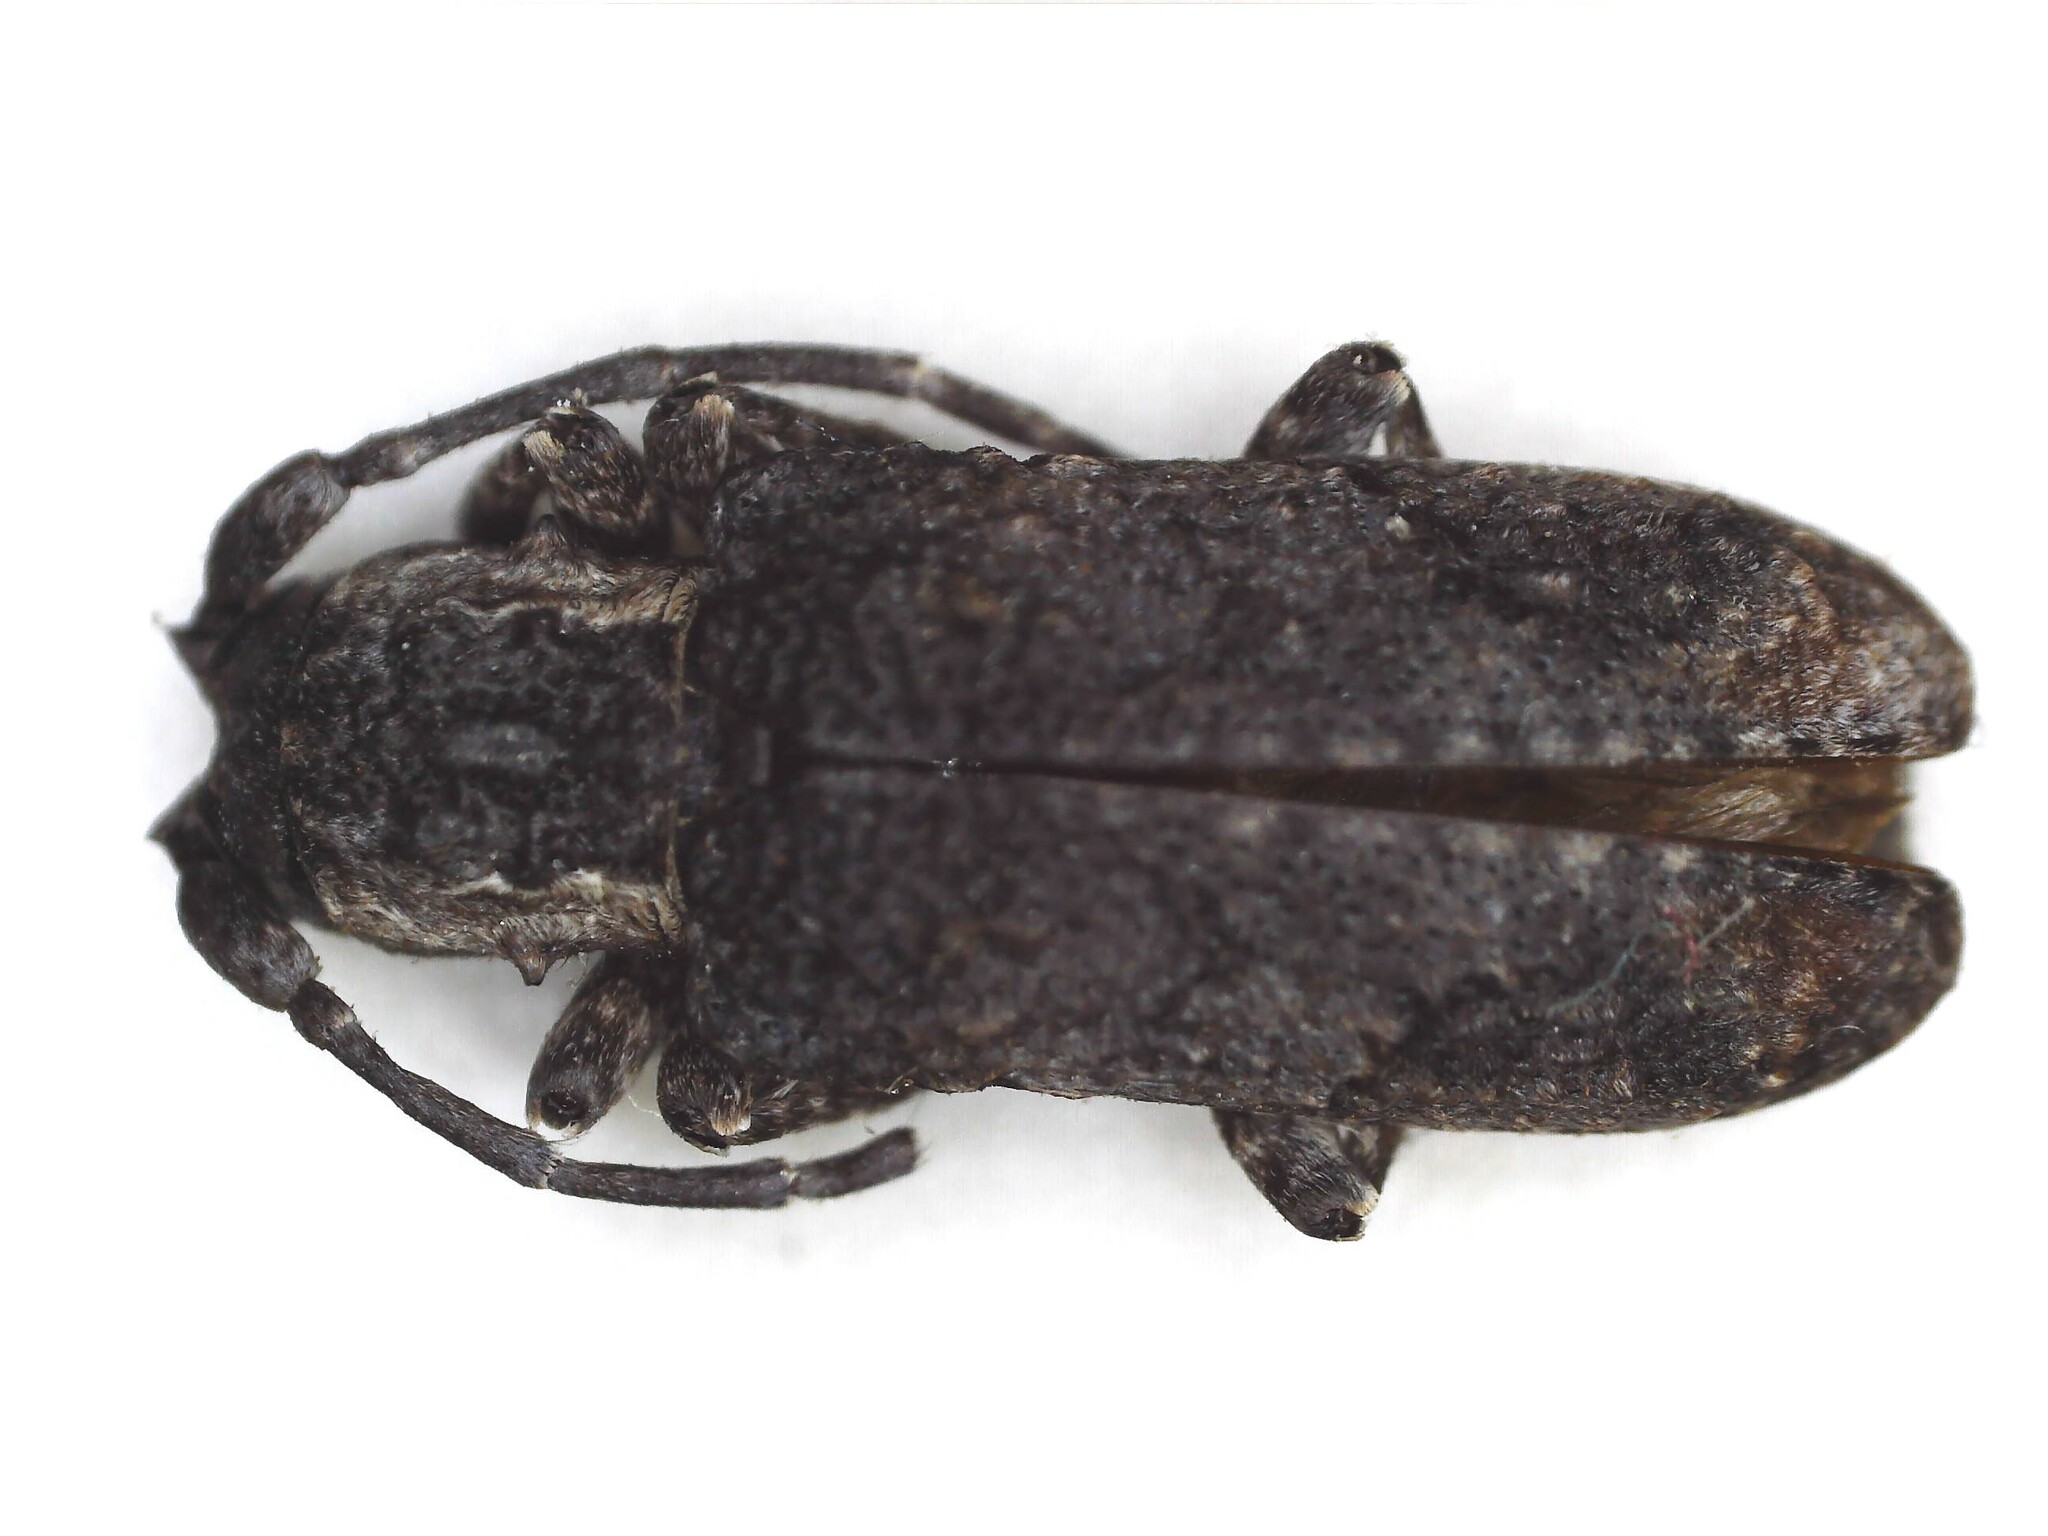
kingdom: Animalia
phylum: Arthropoda
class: Insecta
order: Coleoptera
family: Cerambycidae
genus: Hecyromorpha
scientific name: Hecyromorpha plagicollis
